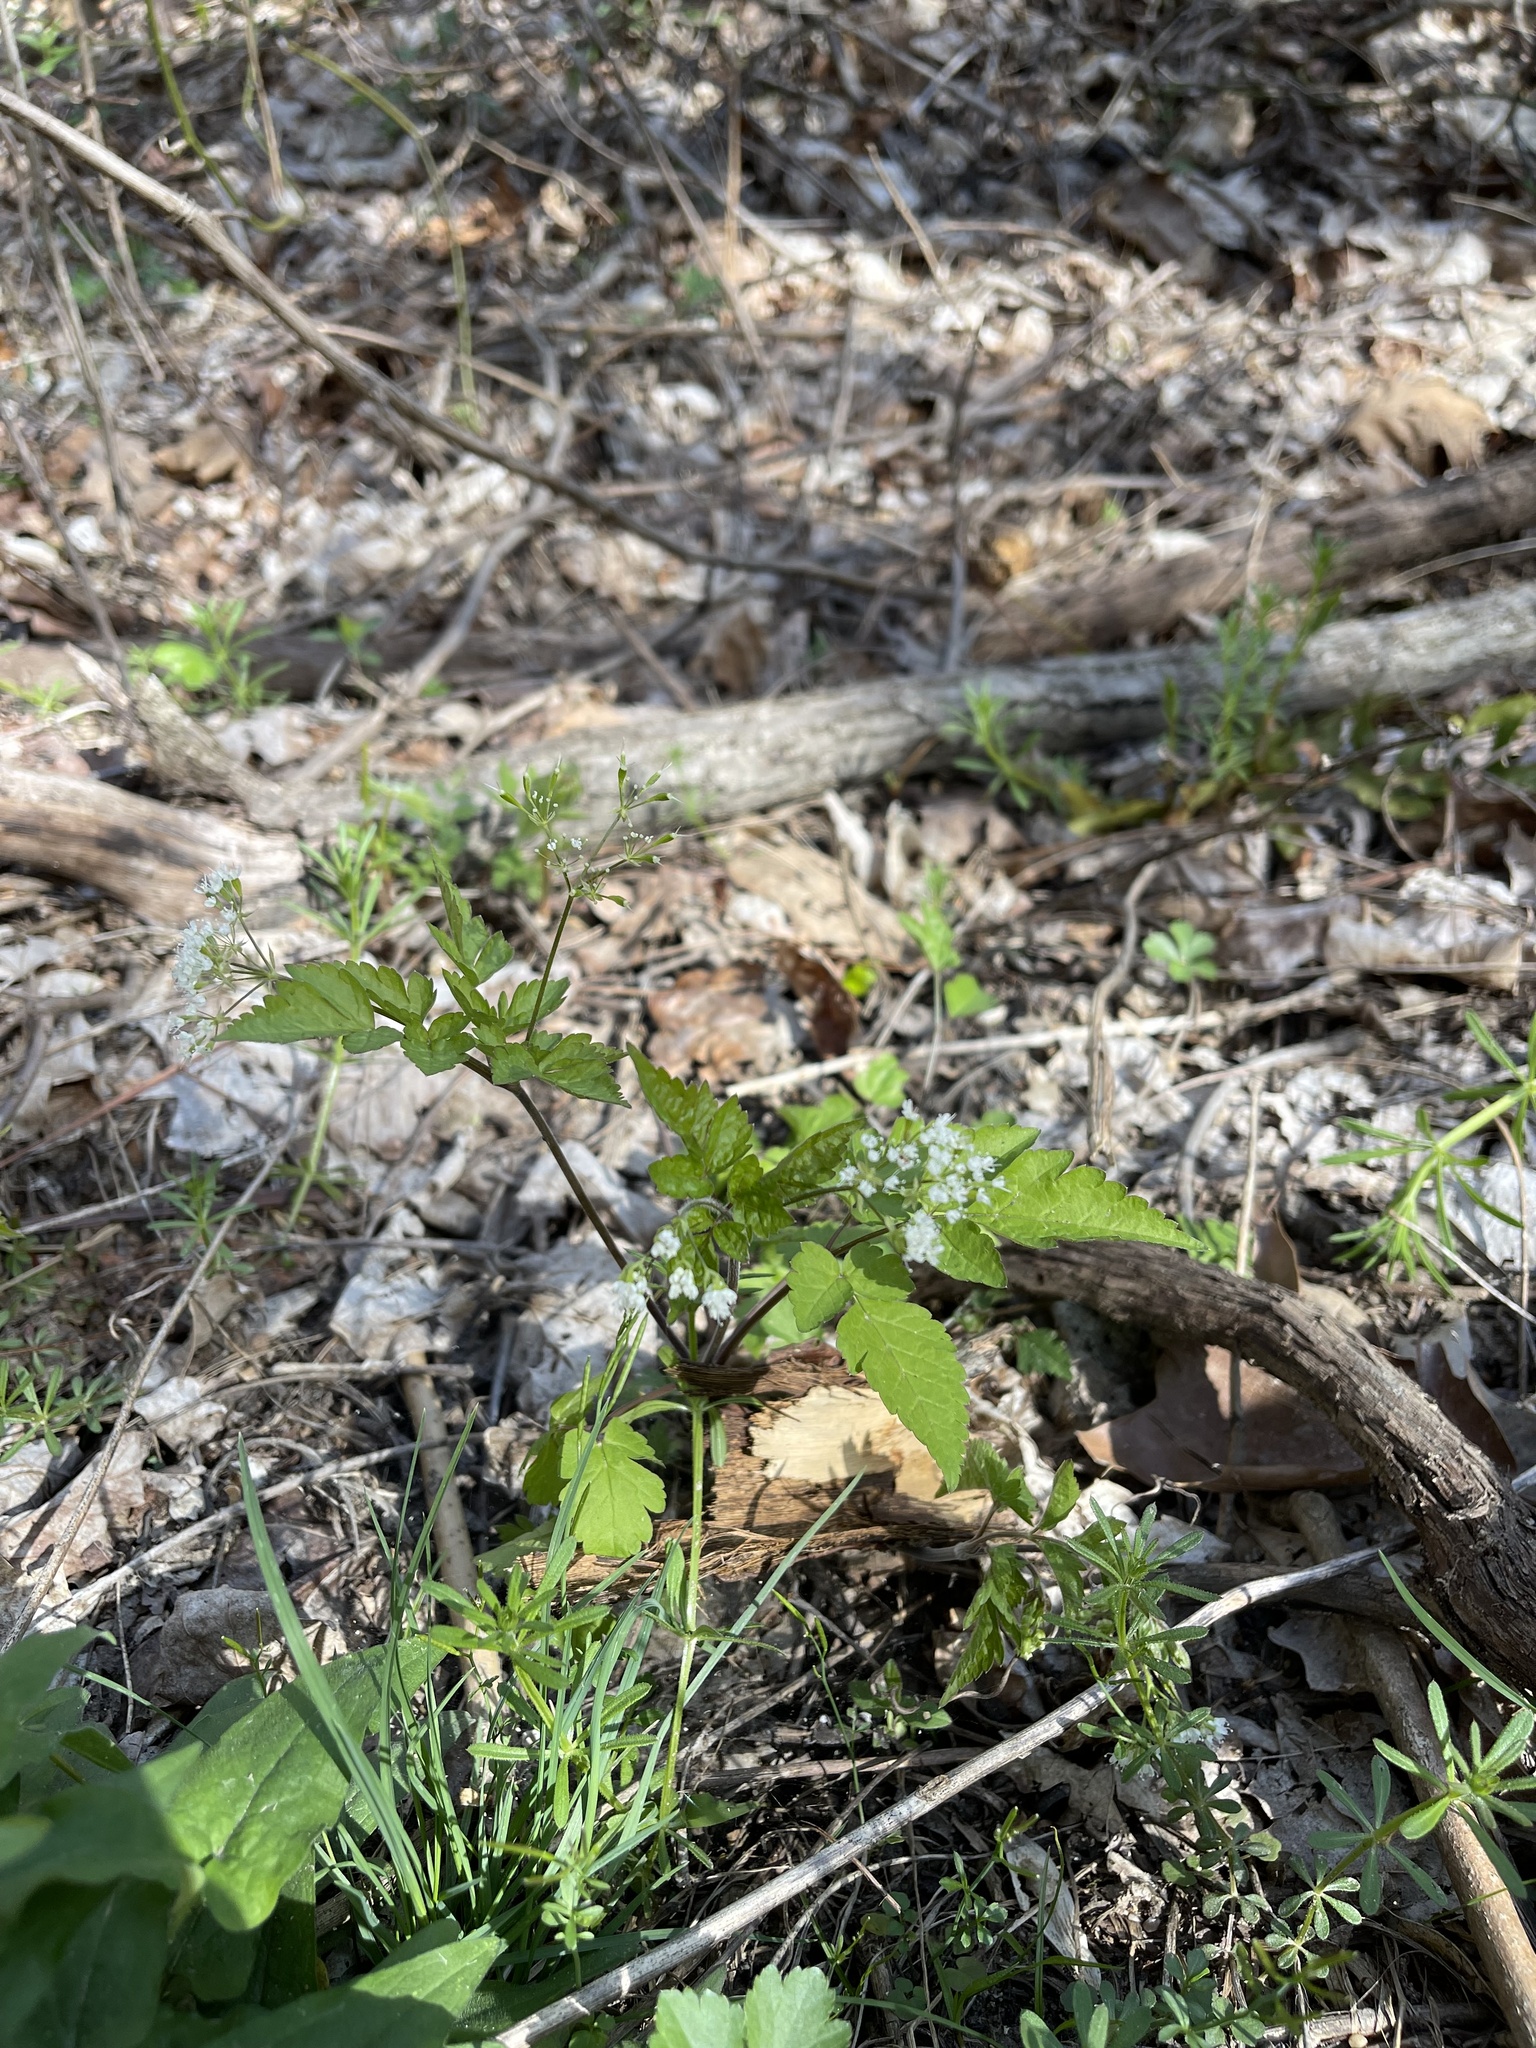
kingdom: Plantae
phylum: Tracheophyta
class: Magnoliopsida
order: Apiales
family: Apiaceae
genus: Osmorhiza
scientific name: Osmorhiza longistylis
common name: Smooth sweet cicely
